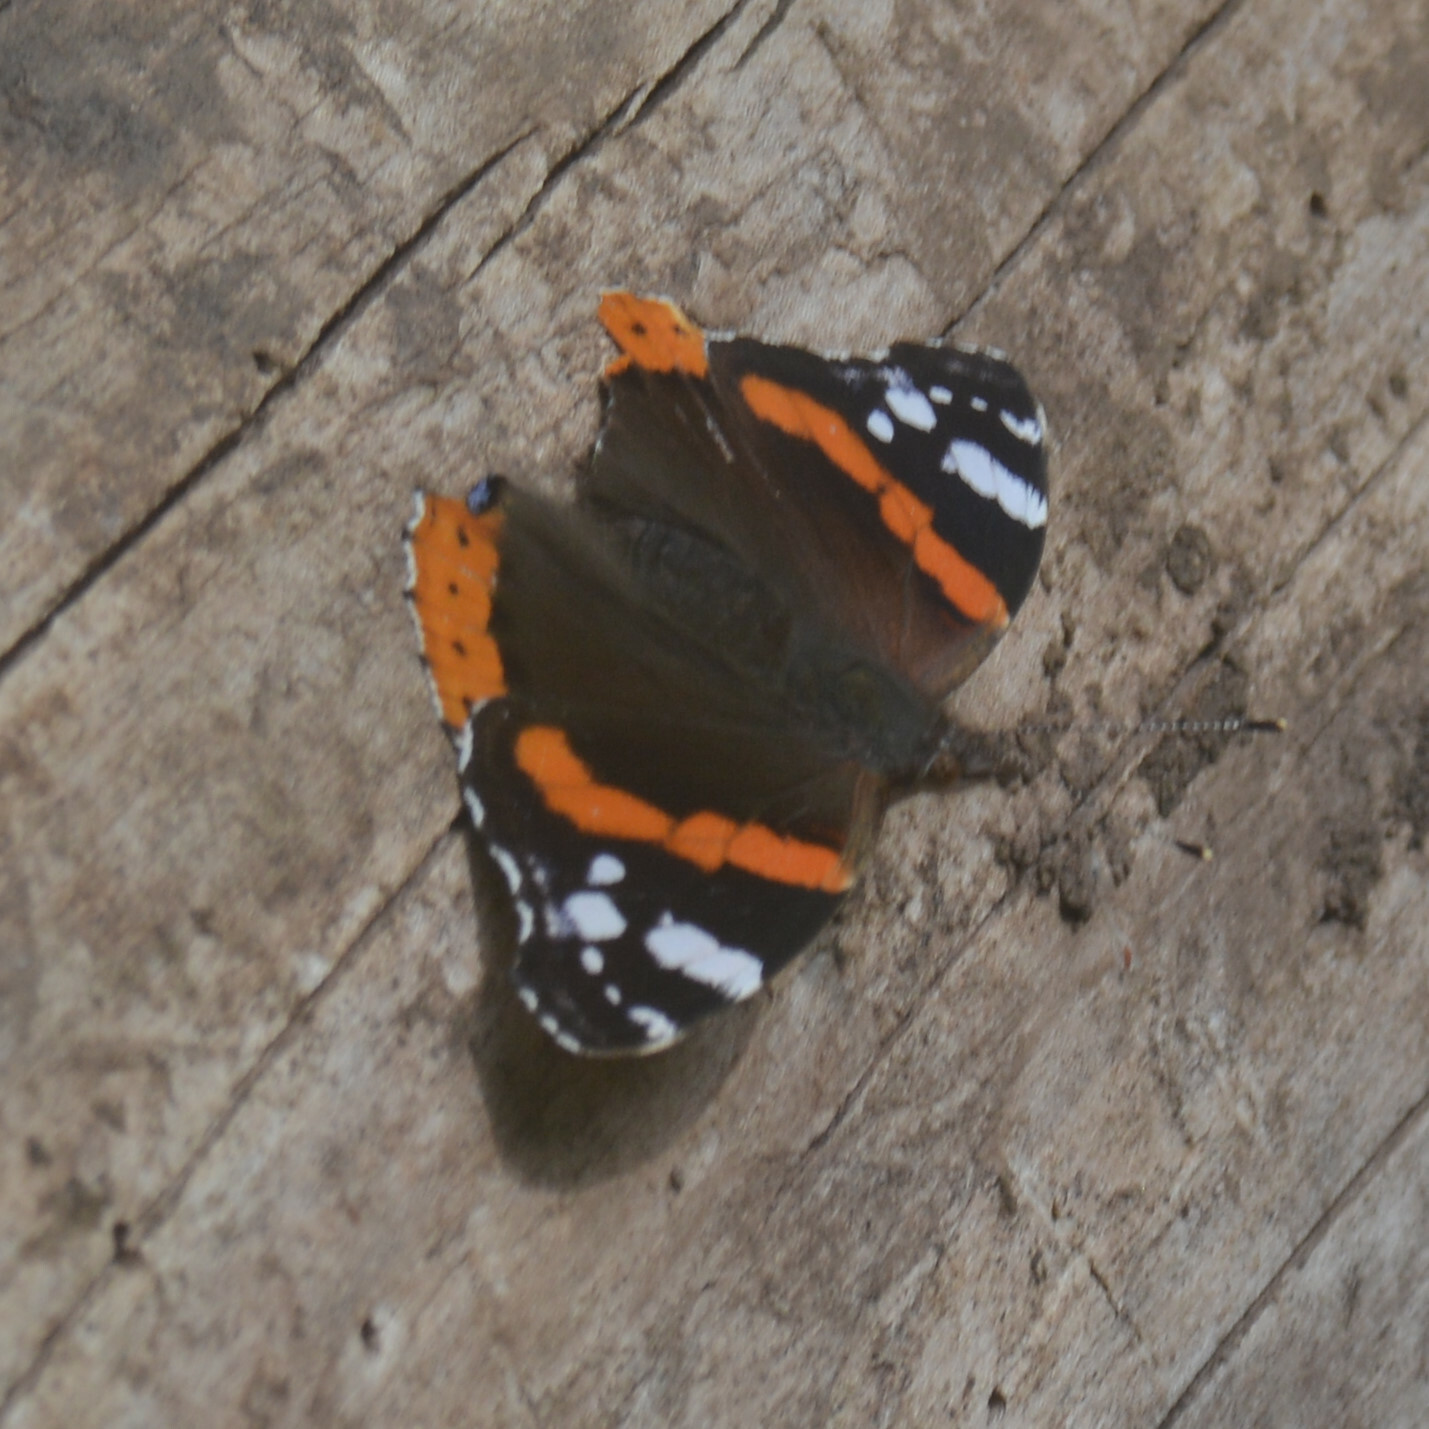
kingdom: Animalia
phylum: Arthropoda
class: Insecta
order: Lepidoptera
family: Nymphalidae
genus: Vanessa
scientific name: Vanessa atalanta
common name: Red admiral
